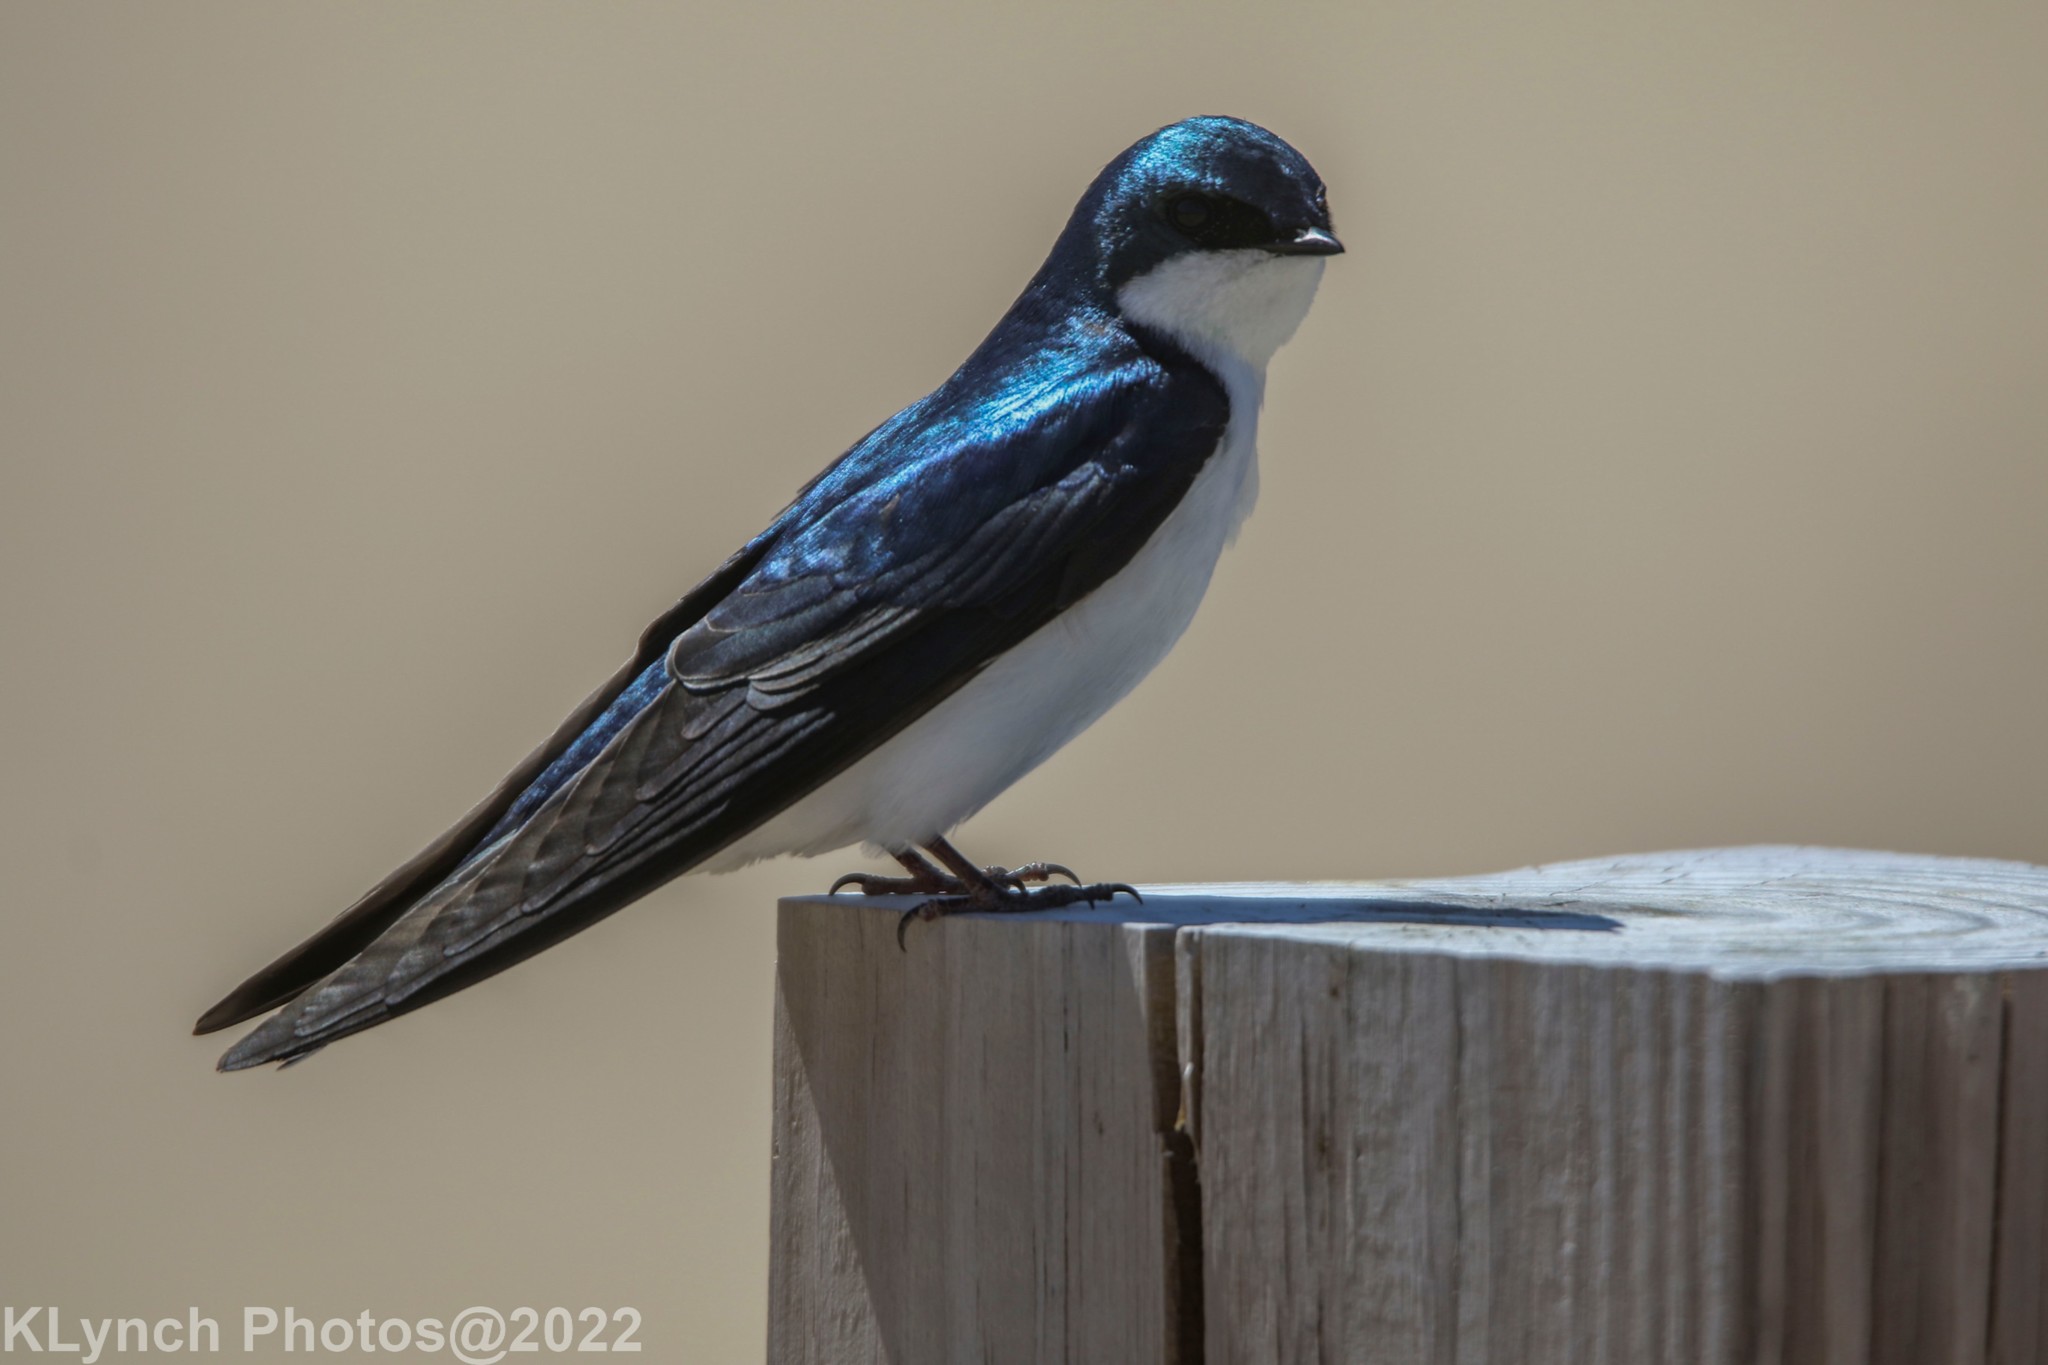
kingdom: Animalia
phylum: Chordata
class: Aves
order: Passeriformes
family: Hirundinidae
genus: Tachycineta
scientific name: Tachycineta bicolor
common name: Tree swallow
